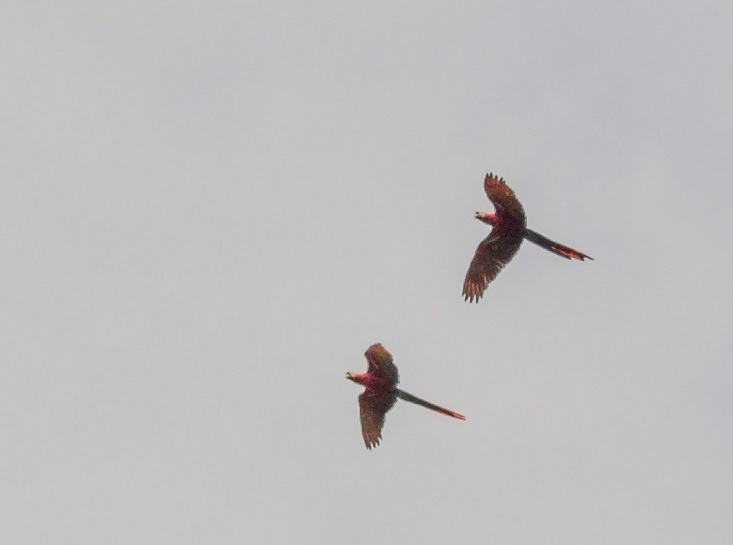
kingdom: Animalia
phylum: Chordata
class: Aves
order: Psittaciformes
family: Psittacidae
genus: Ara
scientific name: Ara macao
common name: Scarlet macaw
